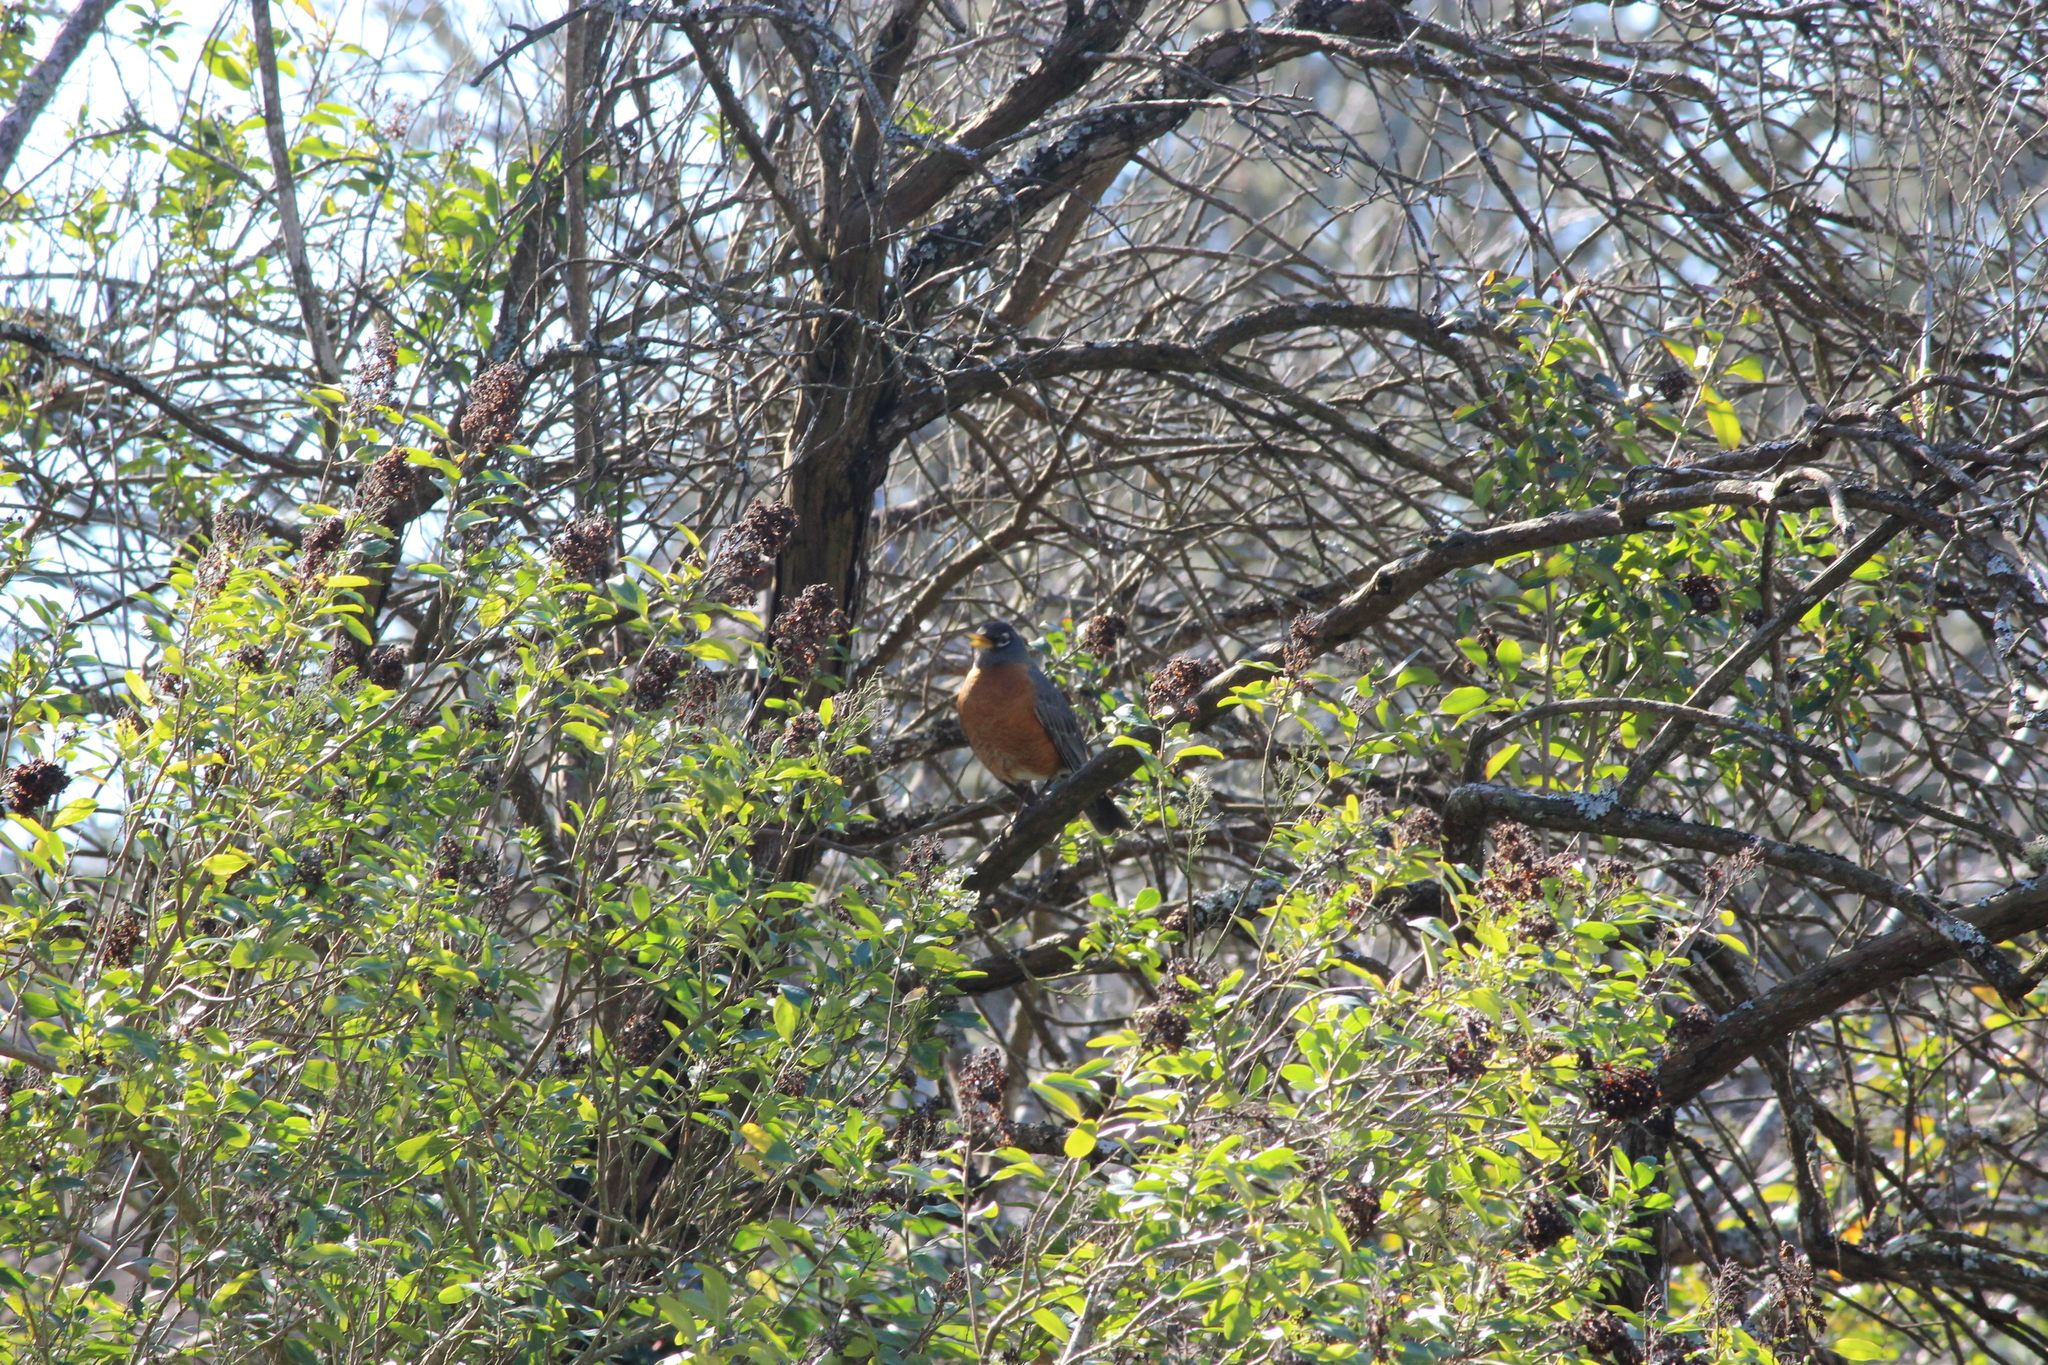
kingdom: Animalia
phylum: Chordata
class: Aves
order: Passeriformes
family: Turdidae
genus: Turdus
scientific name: Turdus migratorius
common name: American robin
